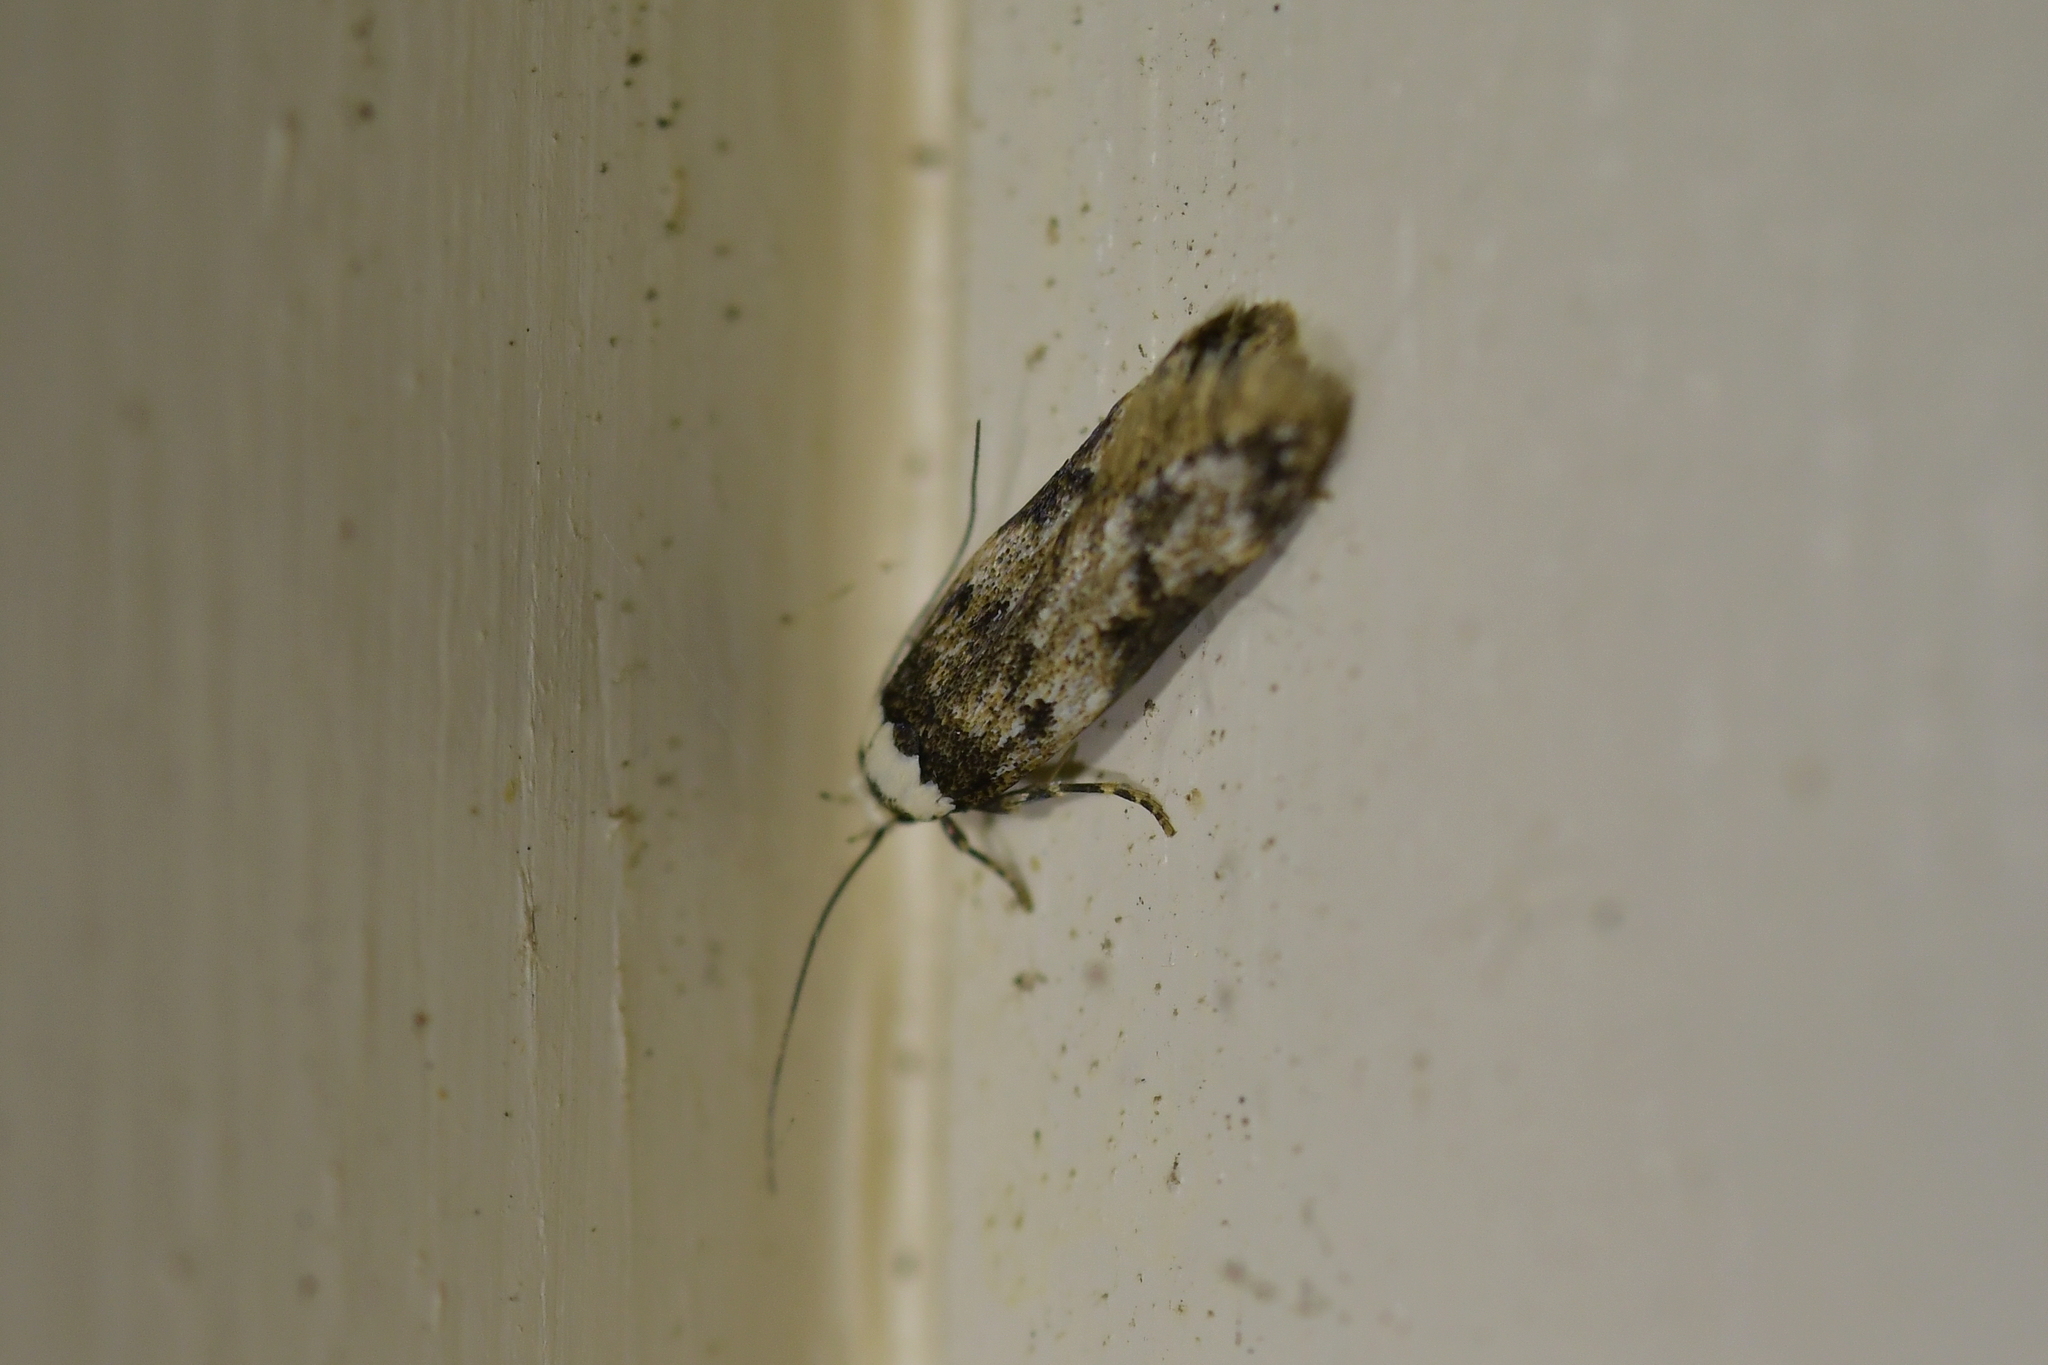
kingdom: Animalia
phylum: Arthropoda
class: Insecta
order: Lepidoptera
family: Oecophoridae
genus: Endrosis
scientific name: Endrosis sarcitrella
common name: White-shouldered house moth
